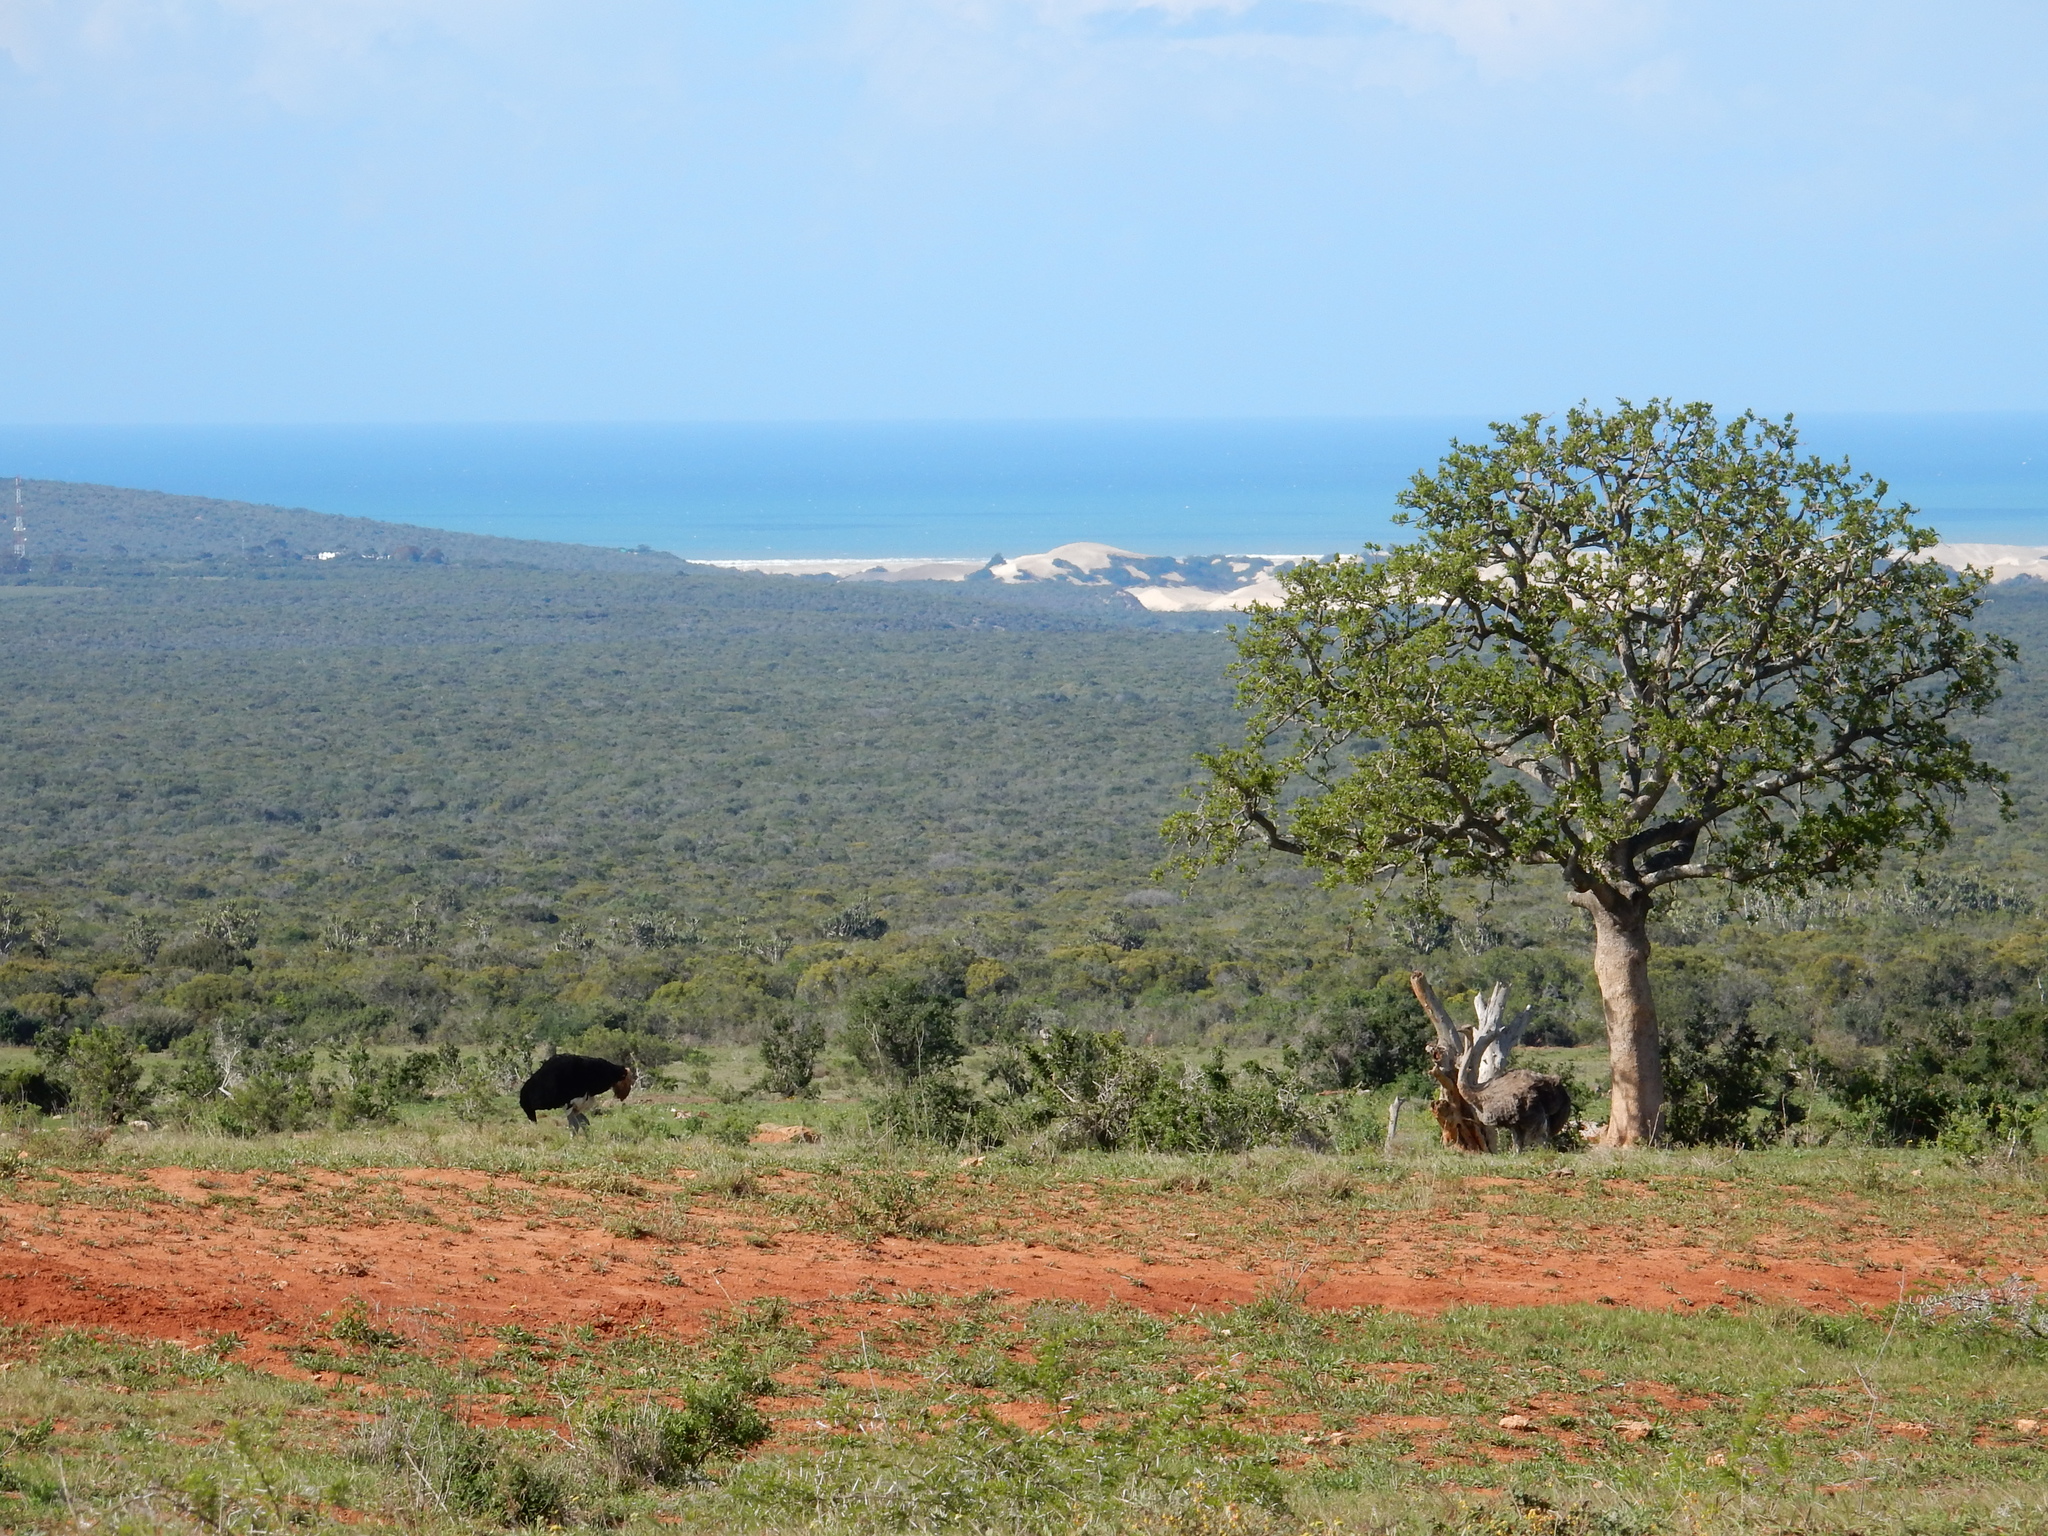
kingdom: Animalia
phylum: Chordata
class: Aves
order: Struthioniformes
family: Struthionidae
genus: Struthio
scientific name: Struthio camelus
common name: Common ostrich
